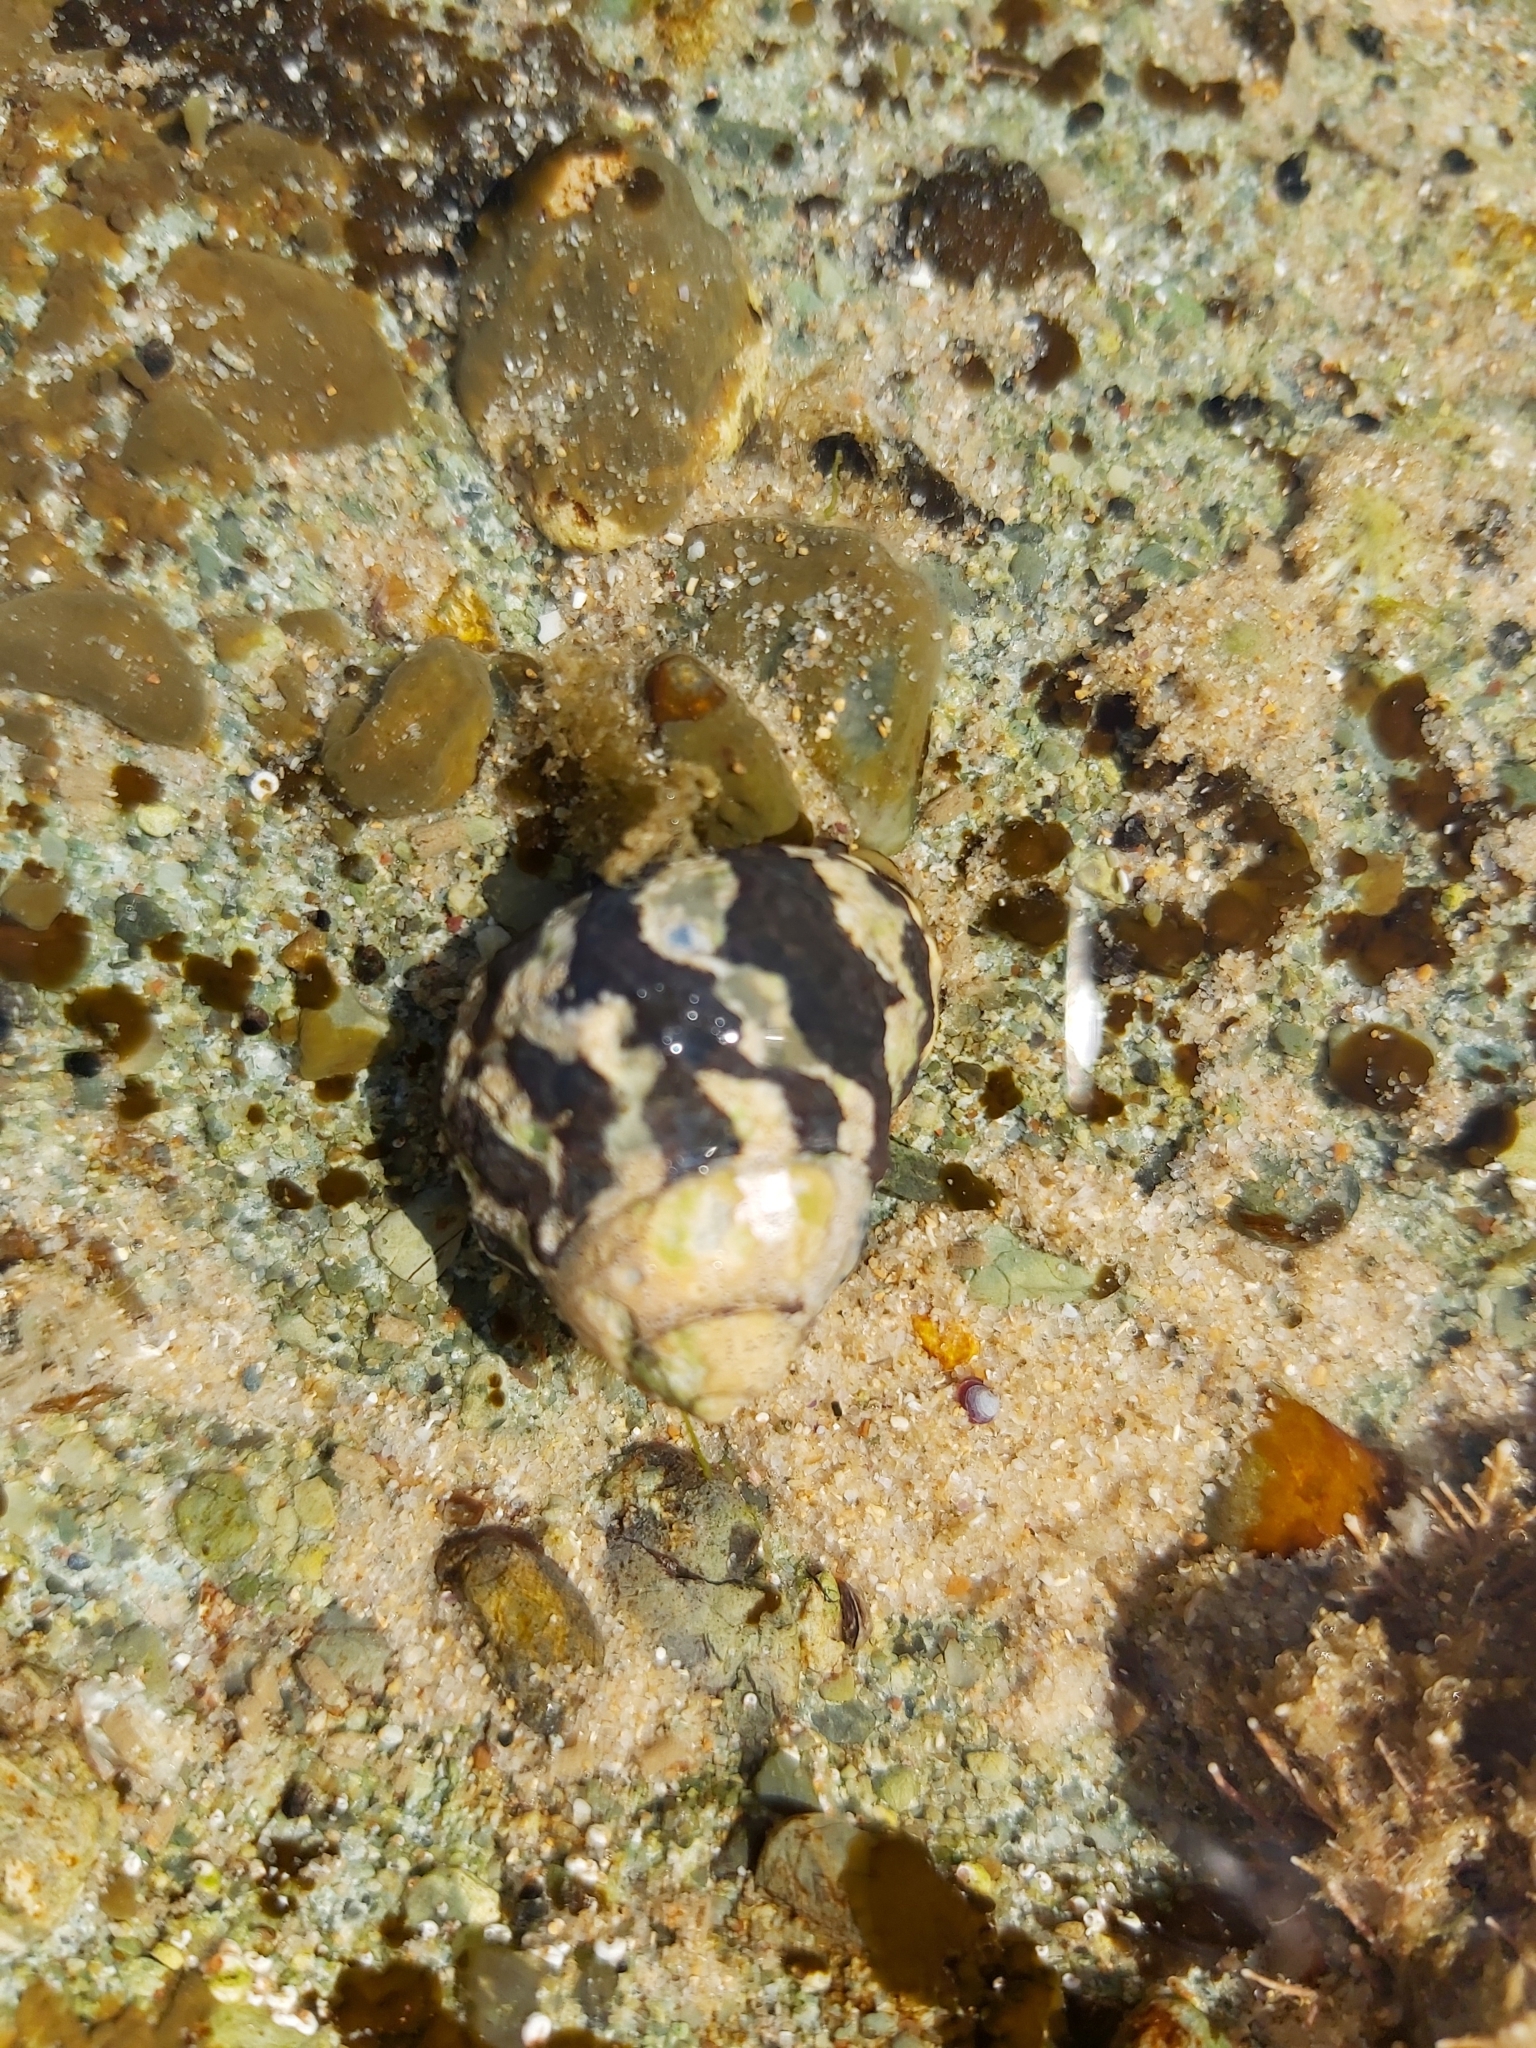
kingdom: Animalia
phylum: Mollusca
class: Gastropoda
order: Trochida
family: Trochidae
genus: Austrocochlea
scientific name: Austrocochlea porcata
